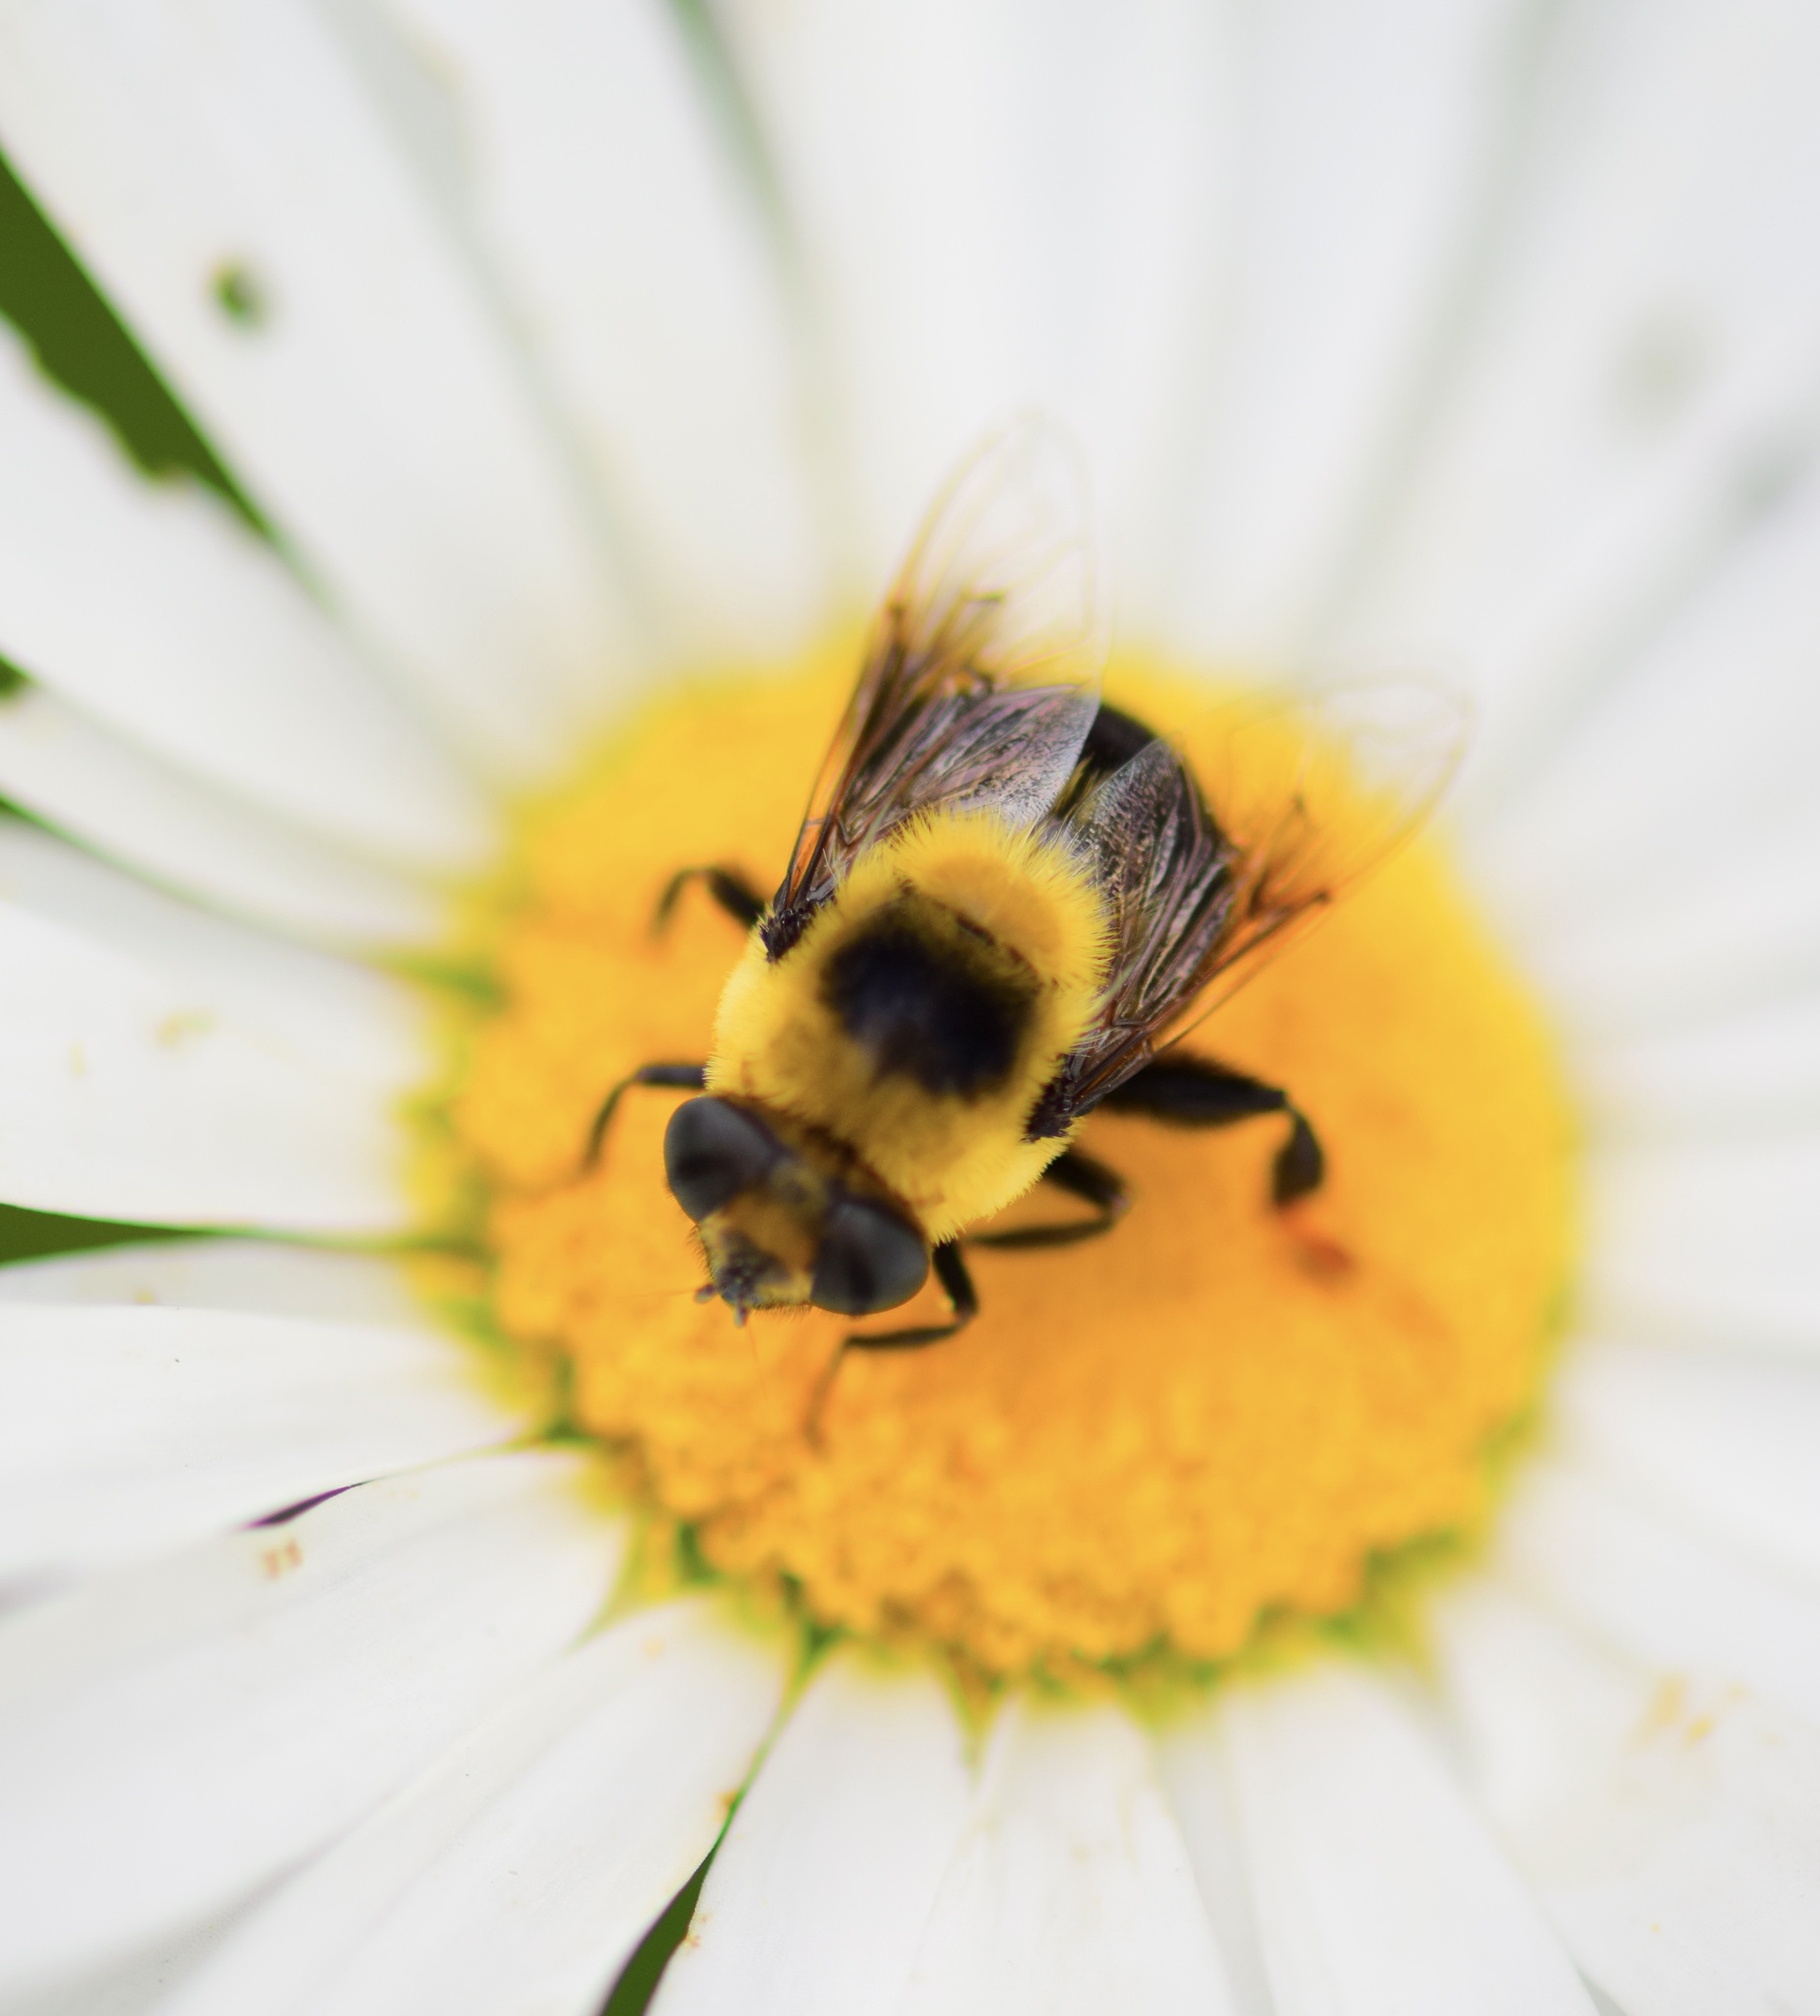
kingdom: Animalia
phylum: Arthropoda
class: Insecta
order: Diptera
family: Syrphidae
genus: Eristalis
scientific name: Eristalis flavipes
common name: Orange-legged drone fly
